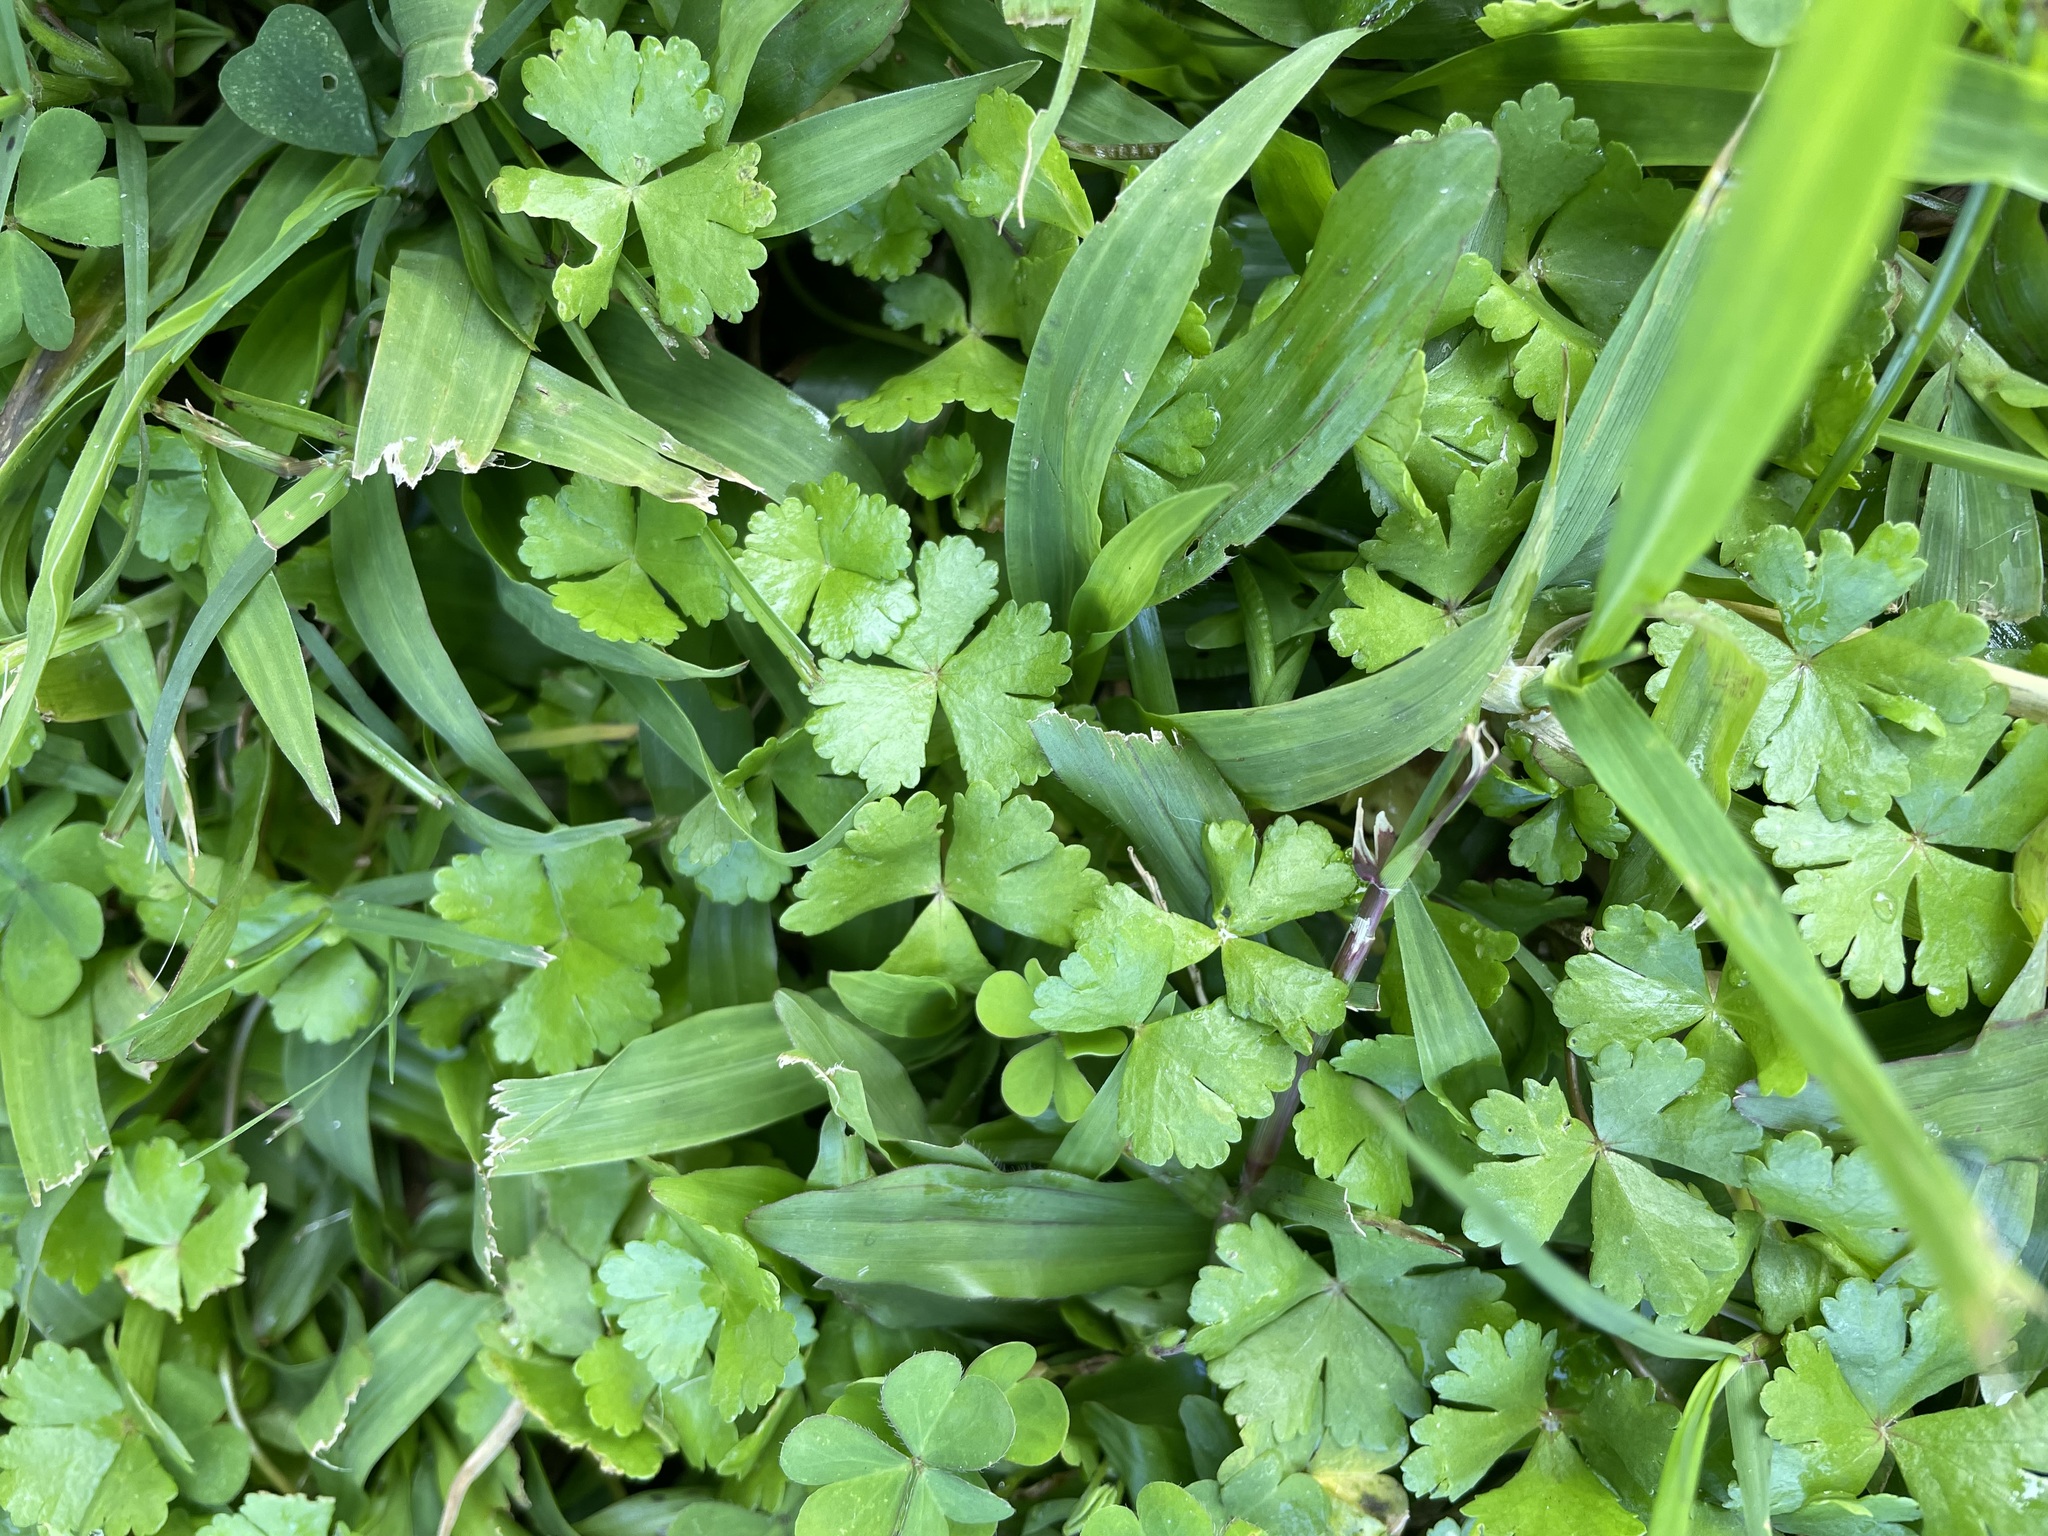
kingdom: Plantae
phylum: Tracheophyta
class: Magnoliopsida
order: Apiales
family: Araliaceae
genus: Hydrocotyle
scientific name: Hydrocotyle batrachium
